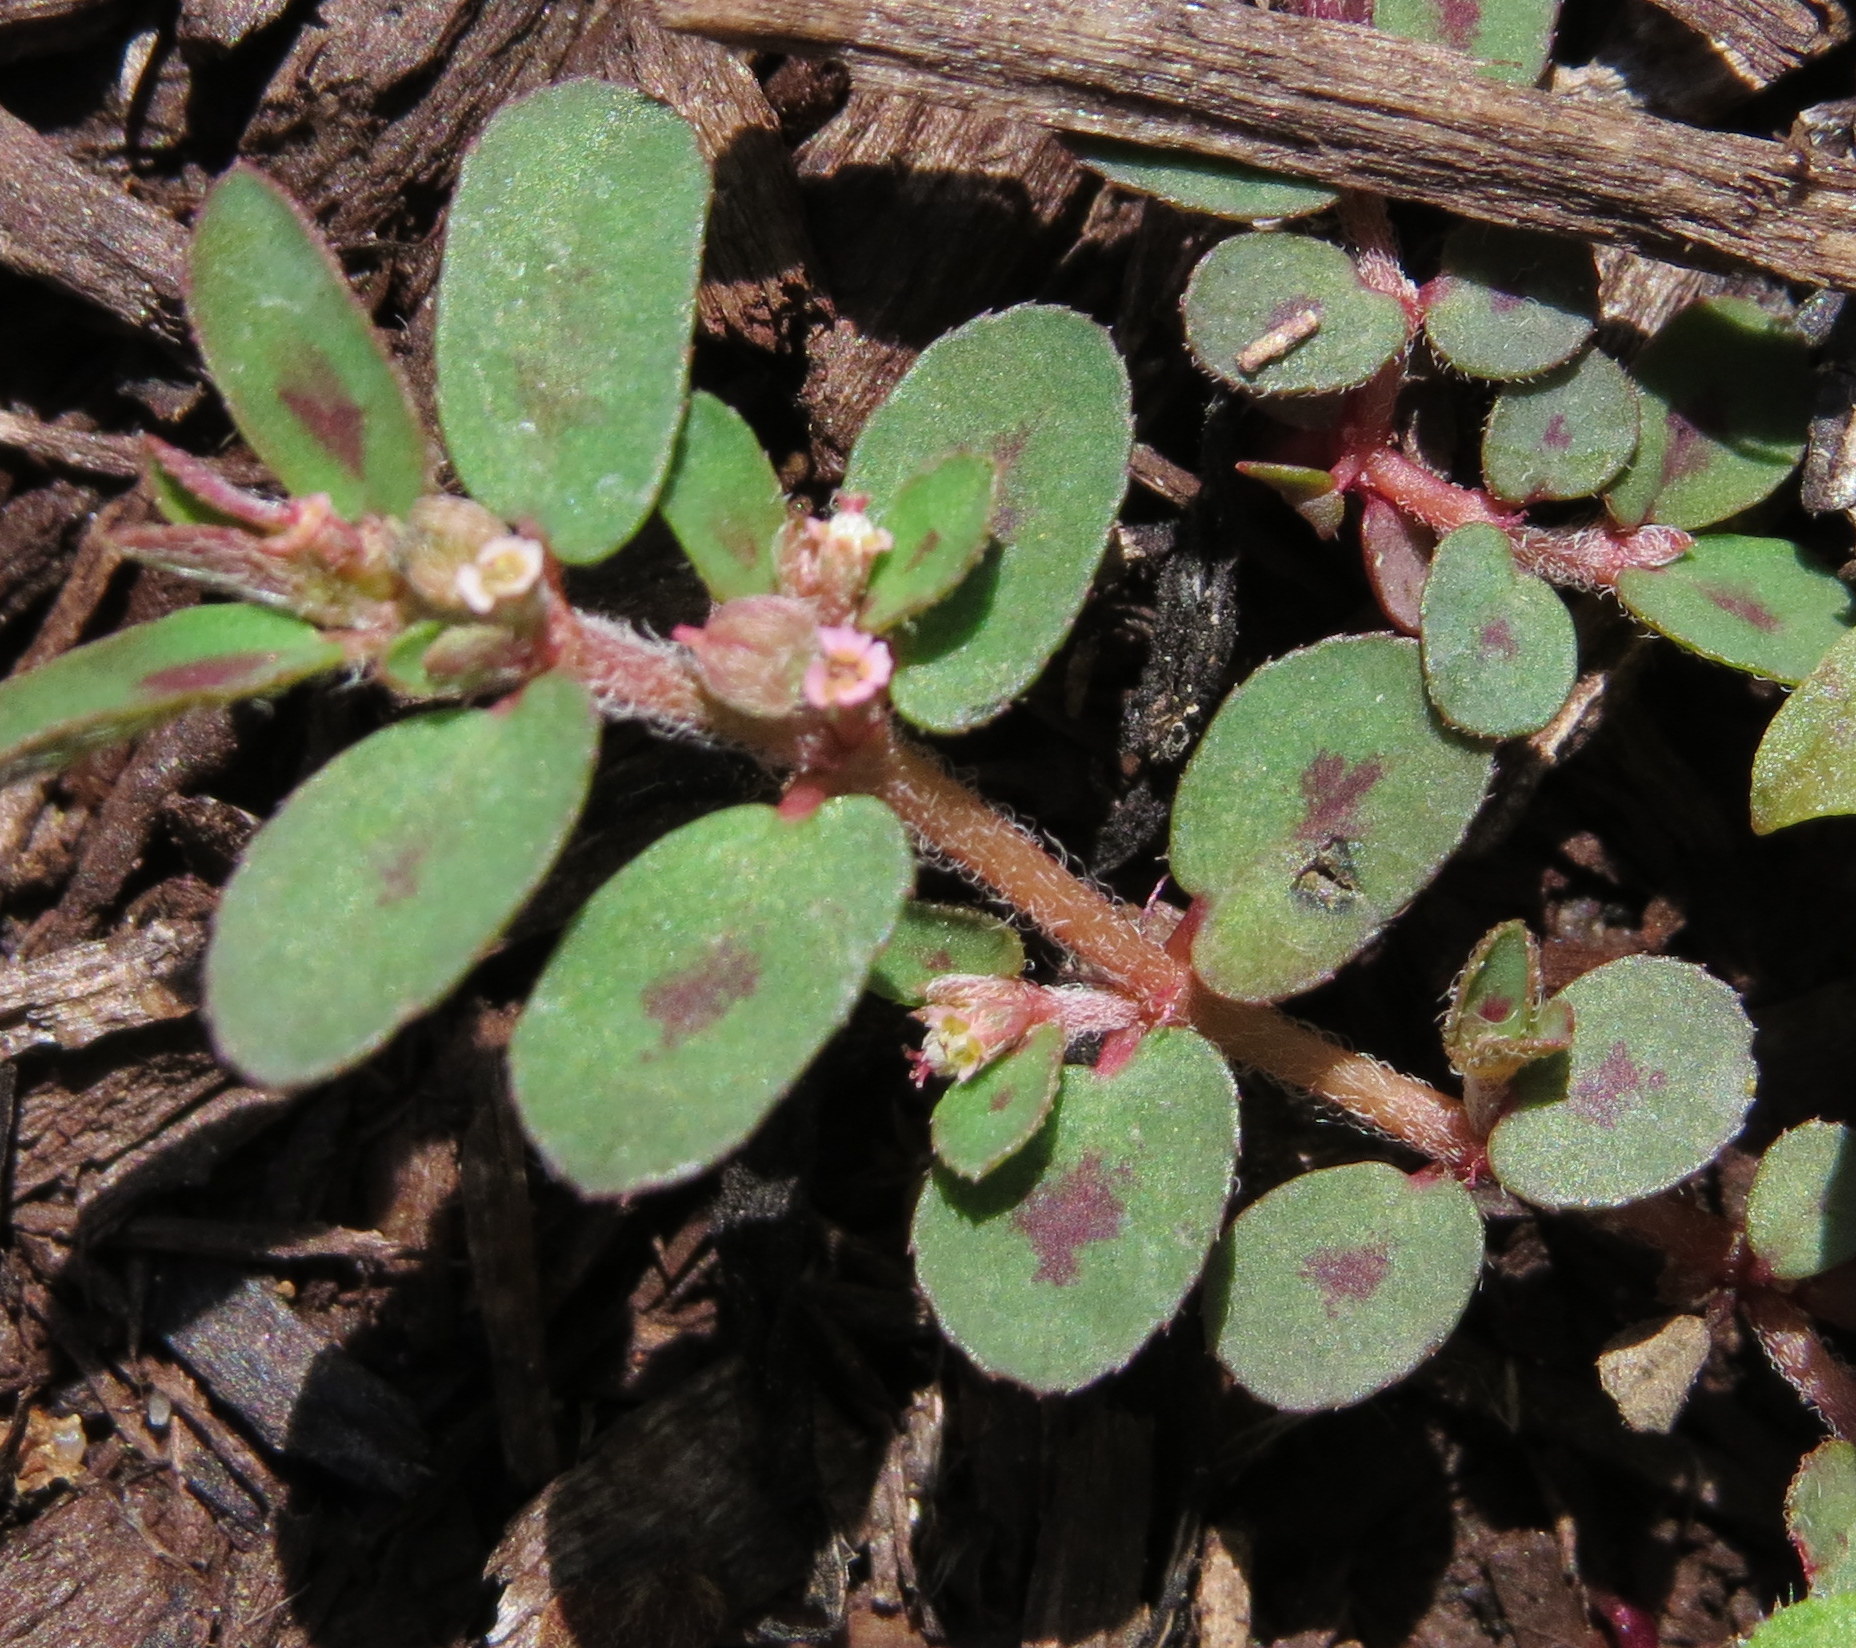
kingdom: Plantae
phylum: Tracheophyta
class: Magnoliopsida
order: Malpighiales
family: Euphorbiaceae
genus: Euphorbia
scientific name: Euphorbia maculata
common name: Spotted spurge
